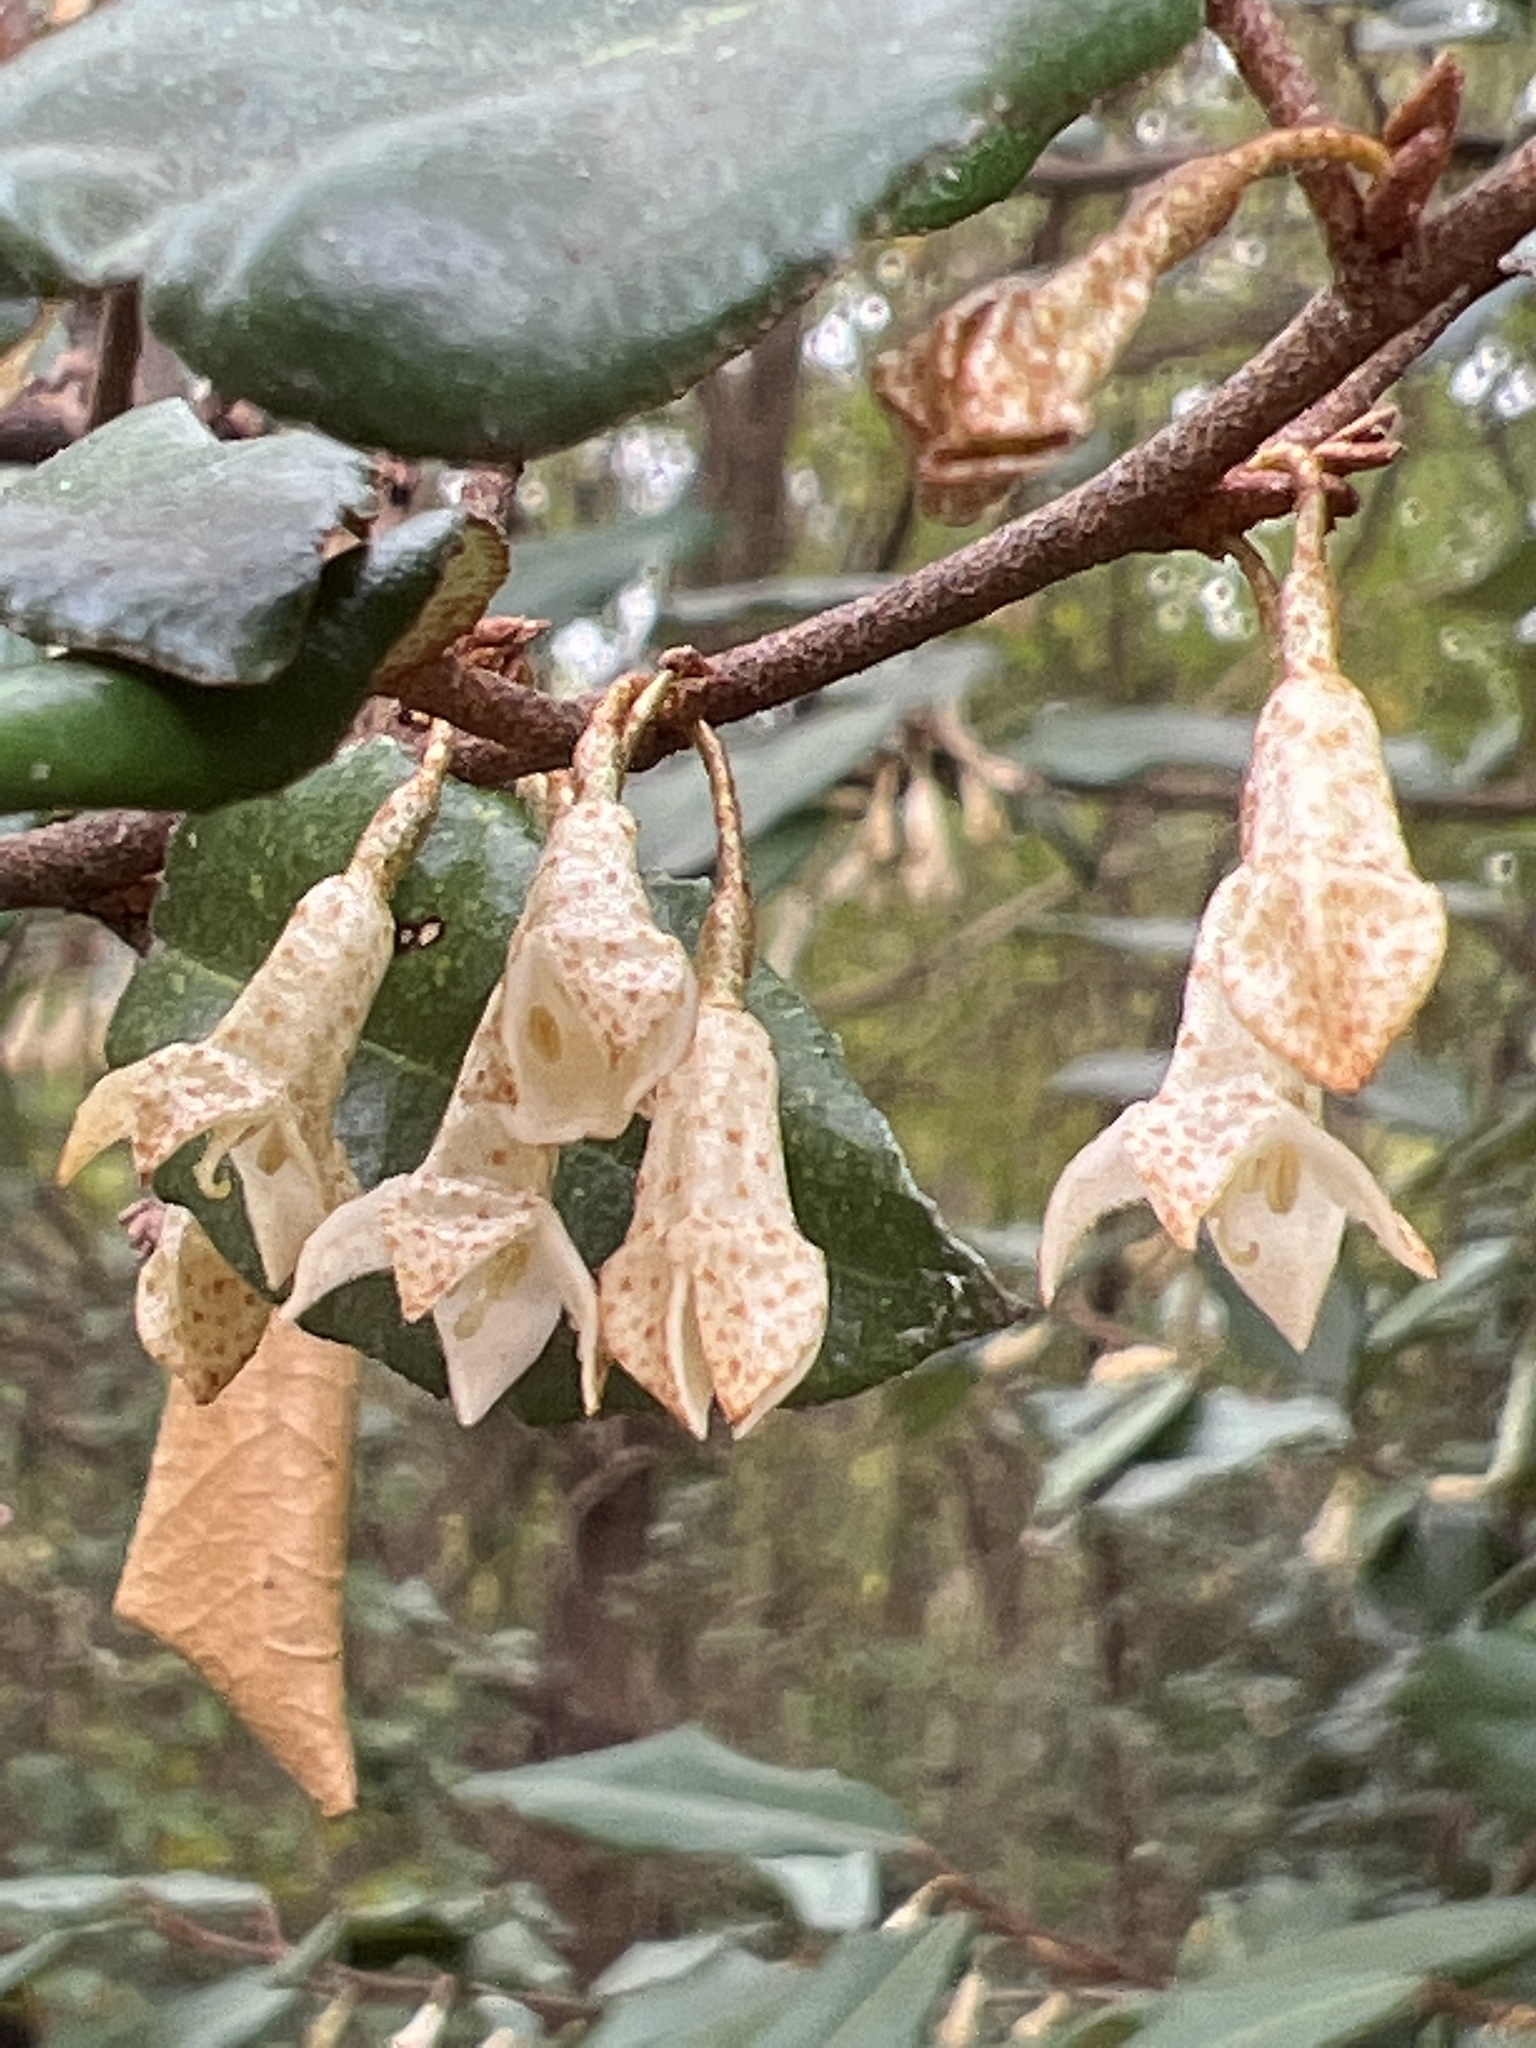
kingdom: Plantae
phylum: Tracheophyta
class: Magnoliopsida
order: Rosales
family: Elaeagnaceae
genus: Elaeagnus
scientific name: Elaeagnus pungens
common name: Spiny oleaster
